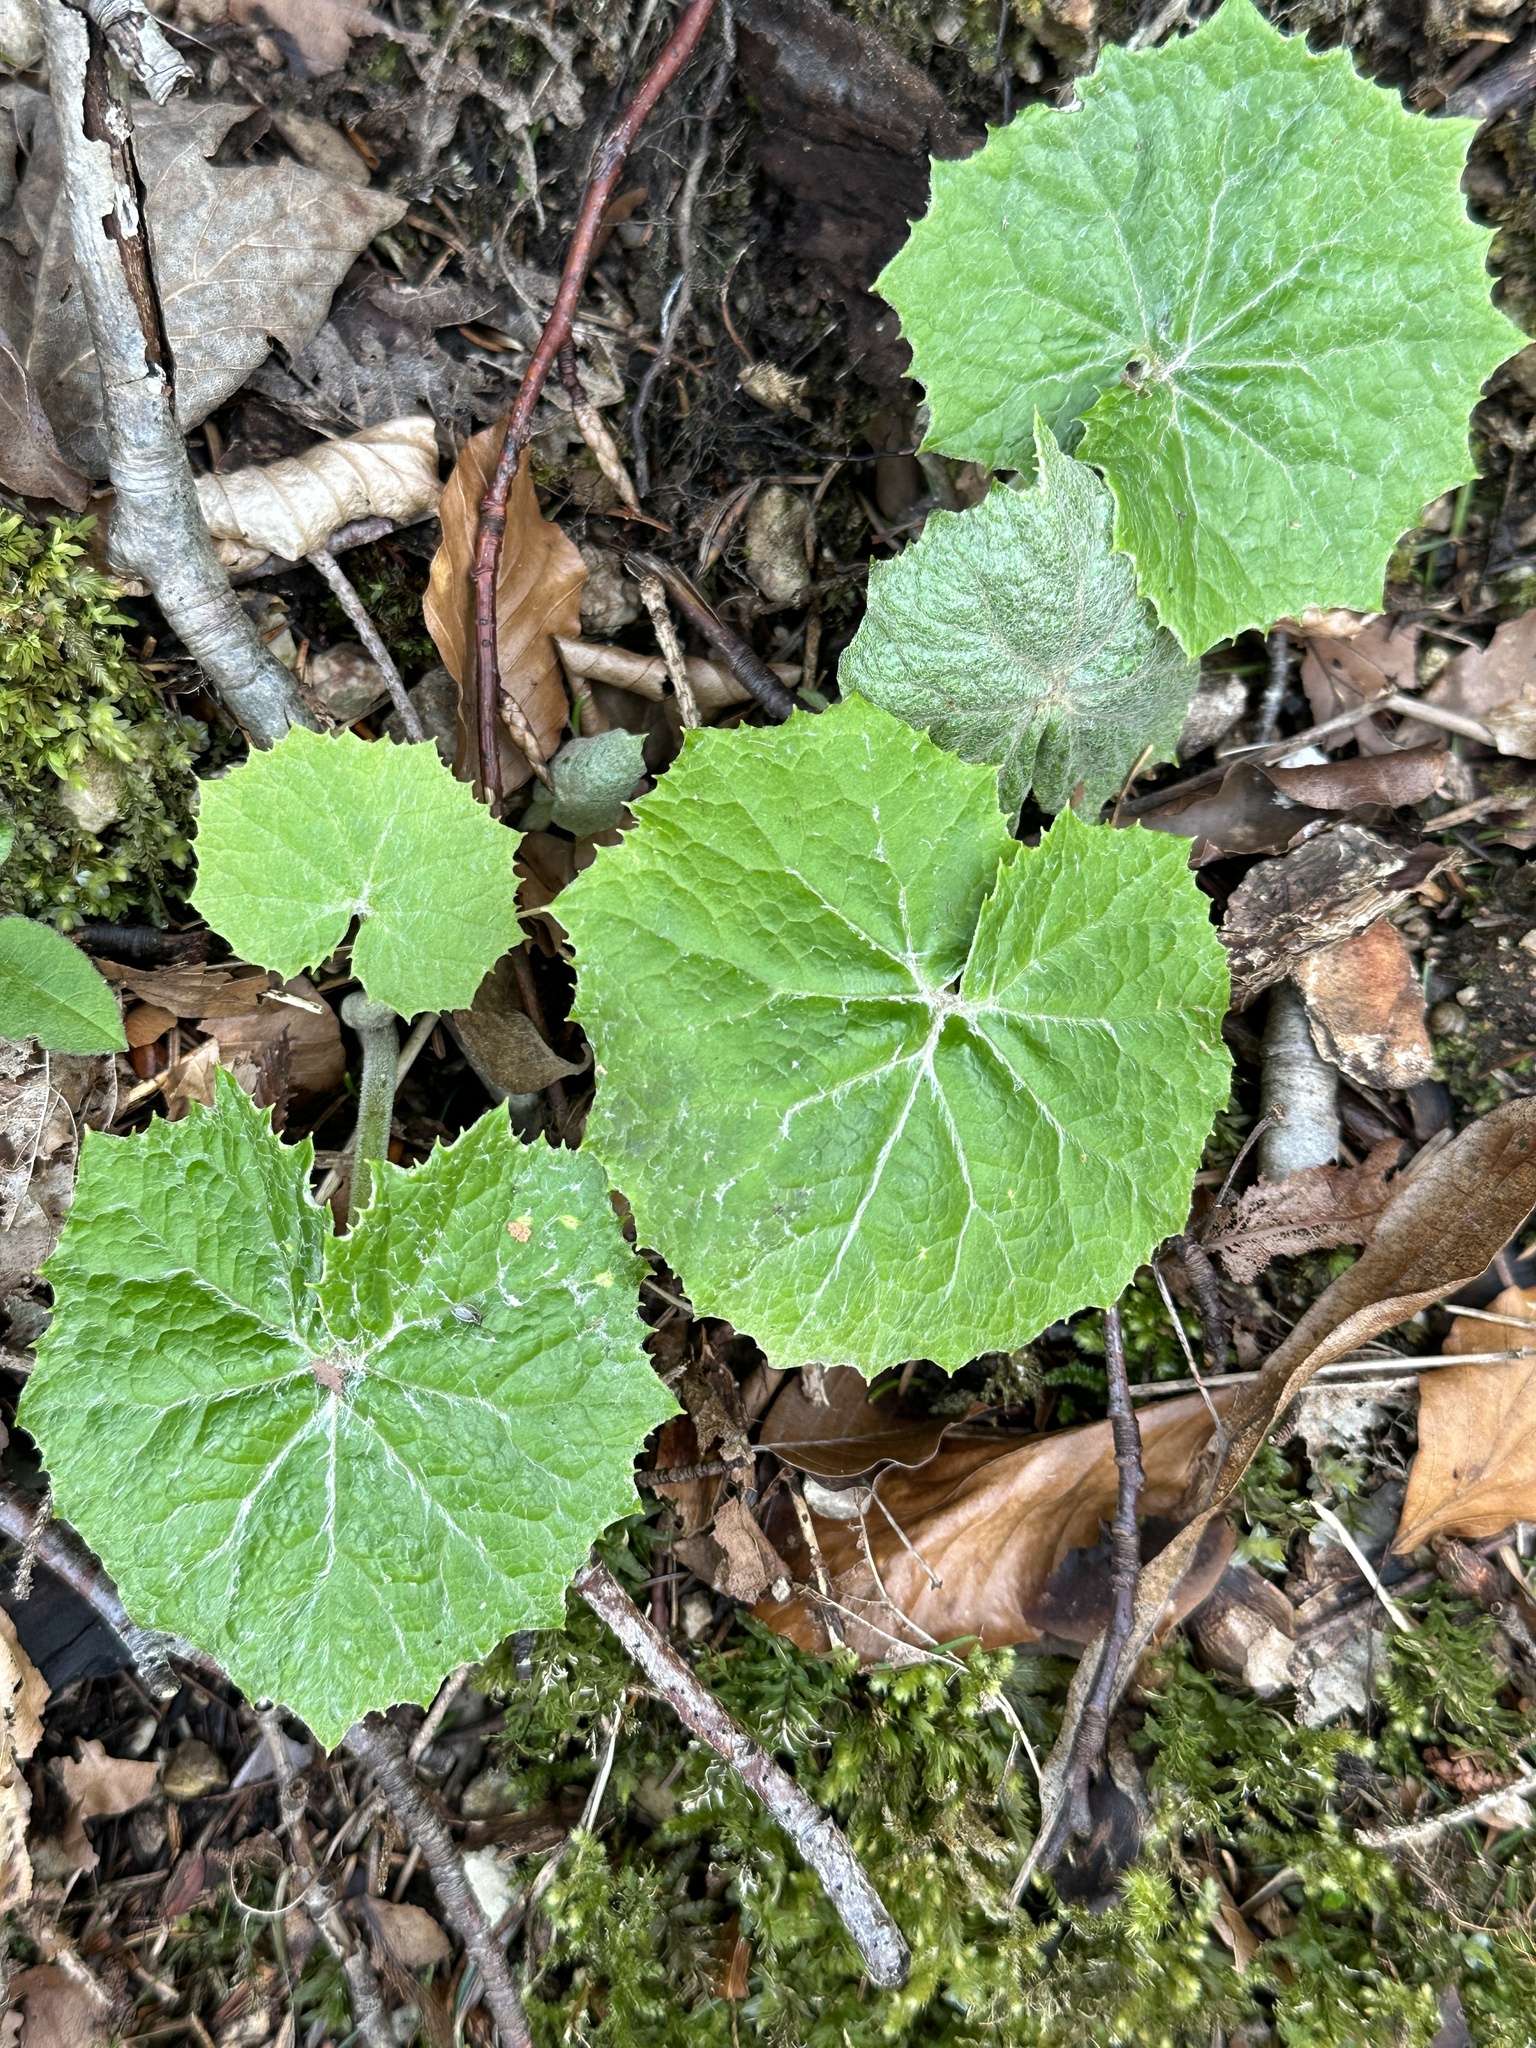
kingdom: Plantae
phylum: Tracheophyta
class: Magnoliopsida
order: Asterales
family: Asteraceae
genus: Petasites
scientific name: Petasites albus
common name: White butterbur
